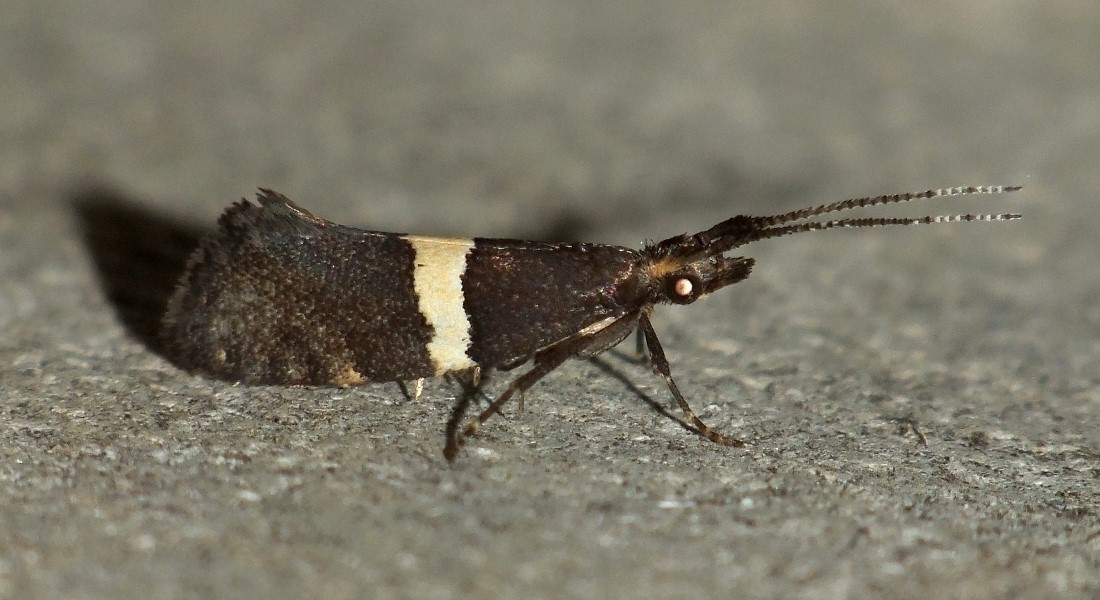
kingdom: Animalia
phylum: Arthropoda
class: Insecta
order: Lepidoptera
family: Plutellidae
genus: Eidophasia
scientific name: Eidophasia messingiella
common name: Bitter-cress smudge
